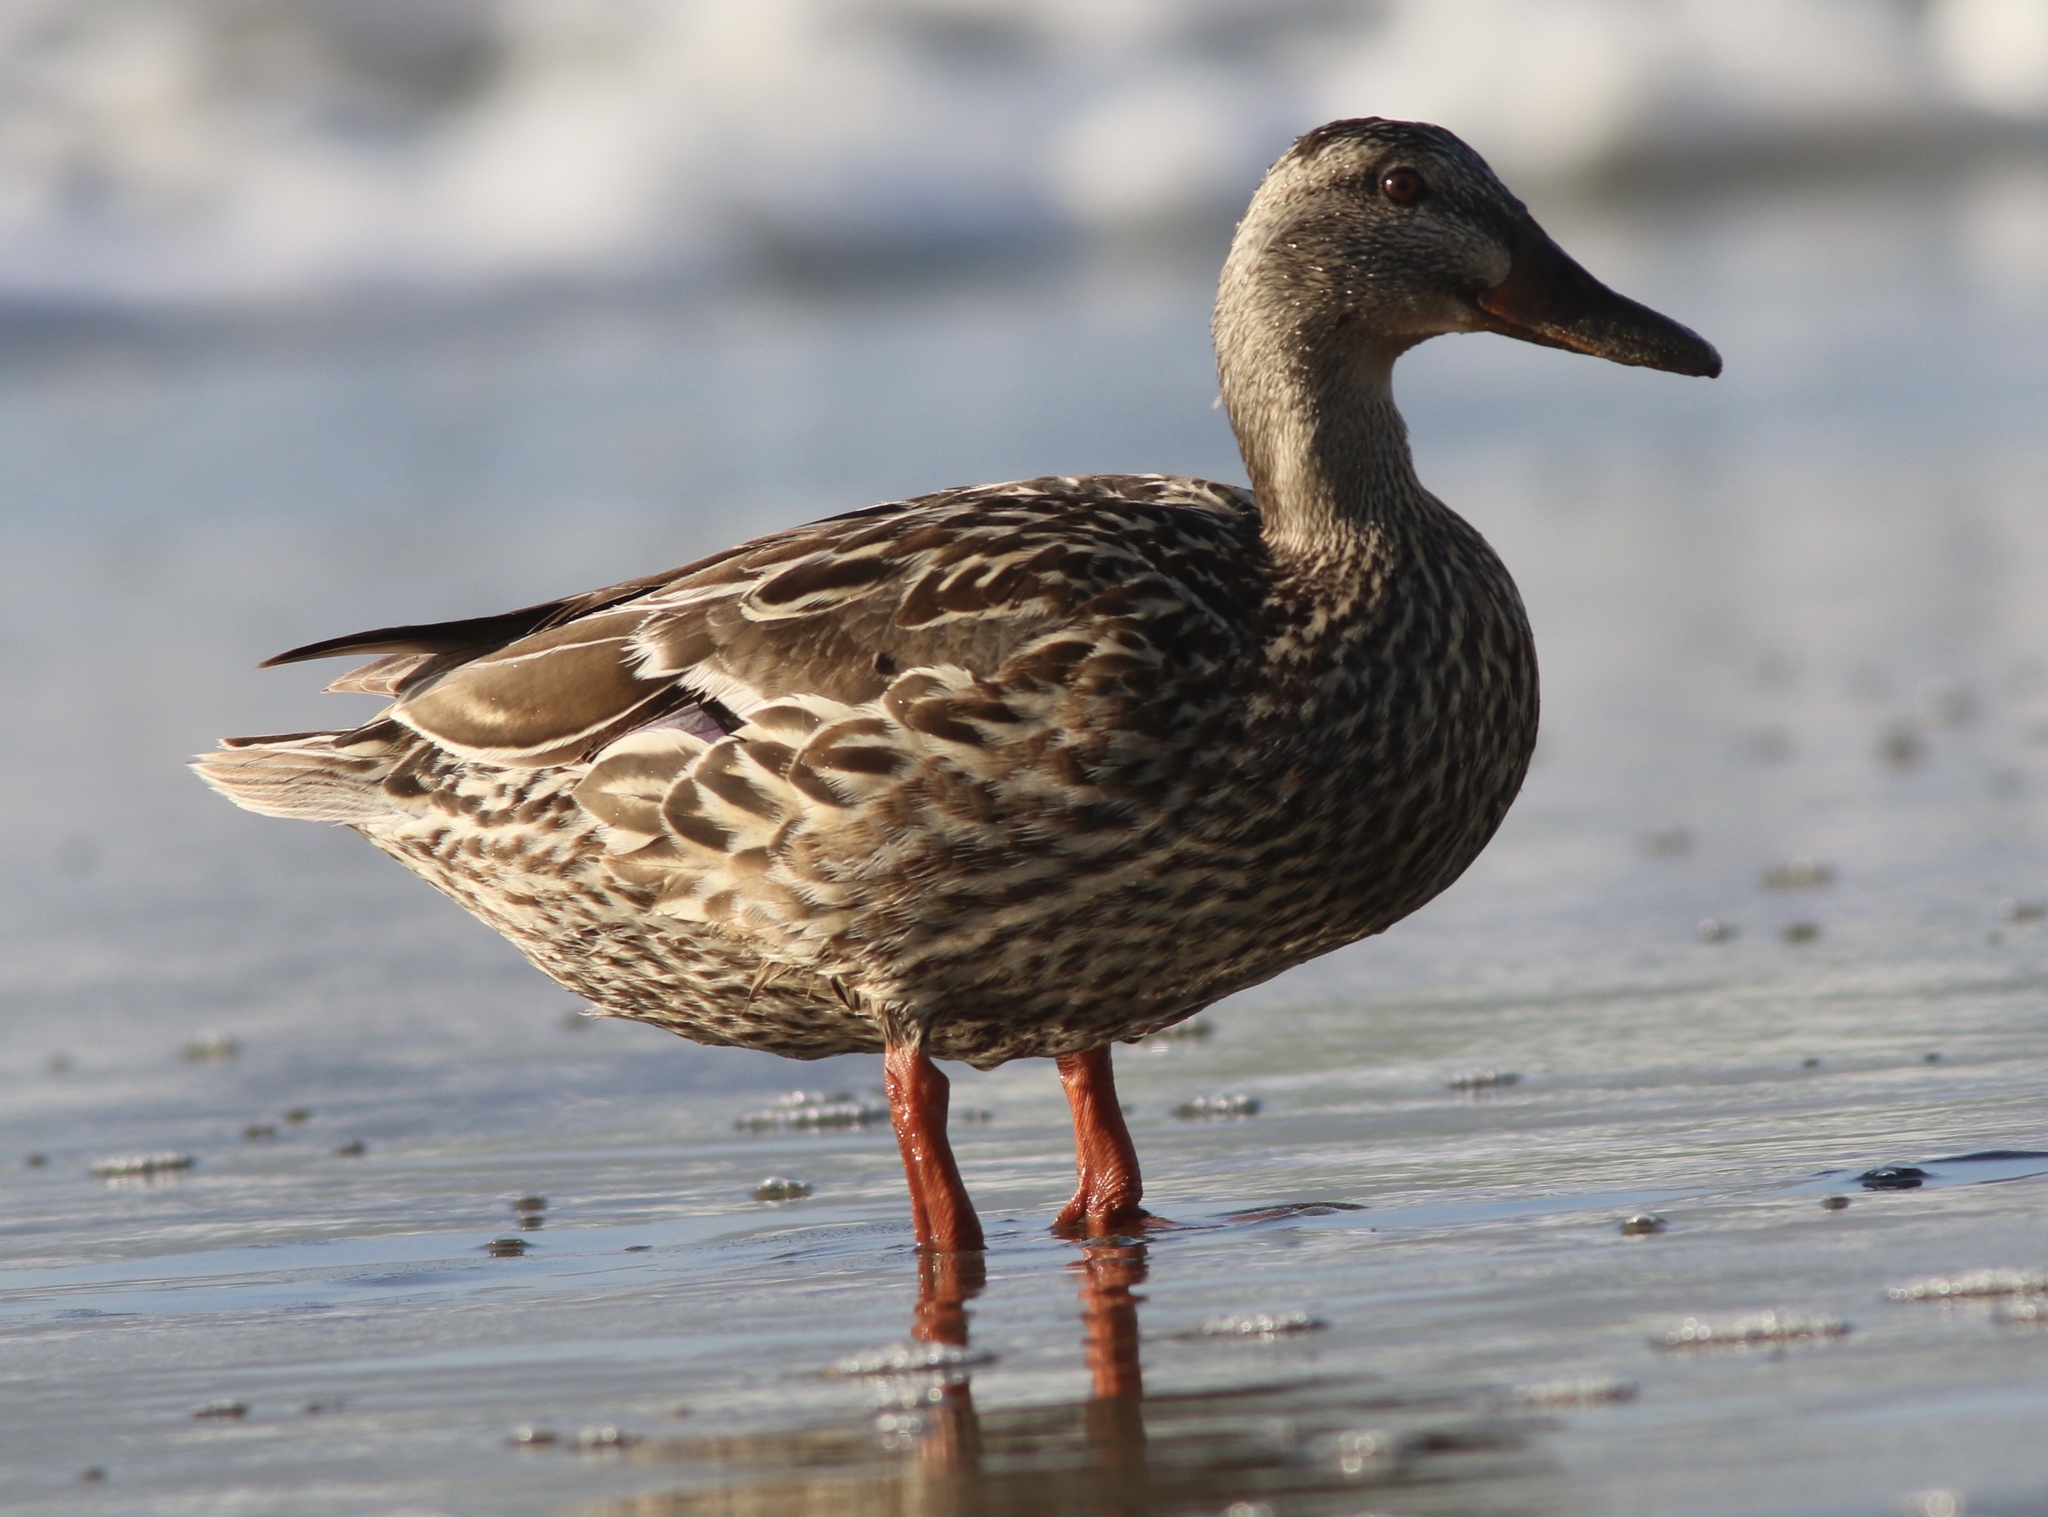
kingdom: Animalia
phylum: Chordata
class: Aves
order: Anseriformes
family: Anatidae
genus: Anas
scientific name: Anas platyrhynchos
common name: Mallard
